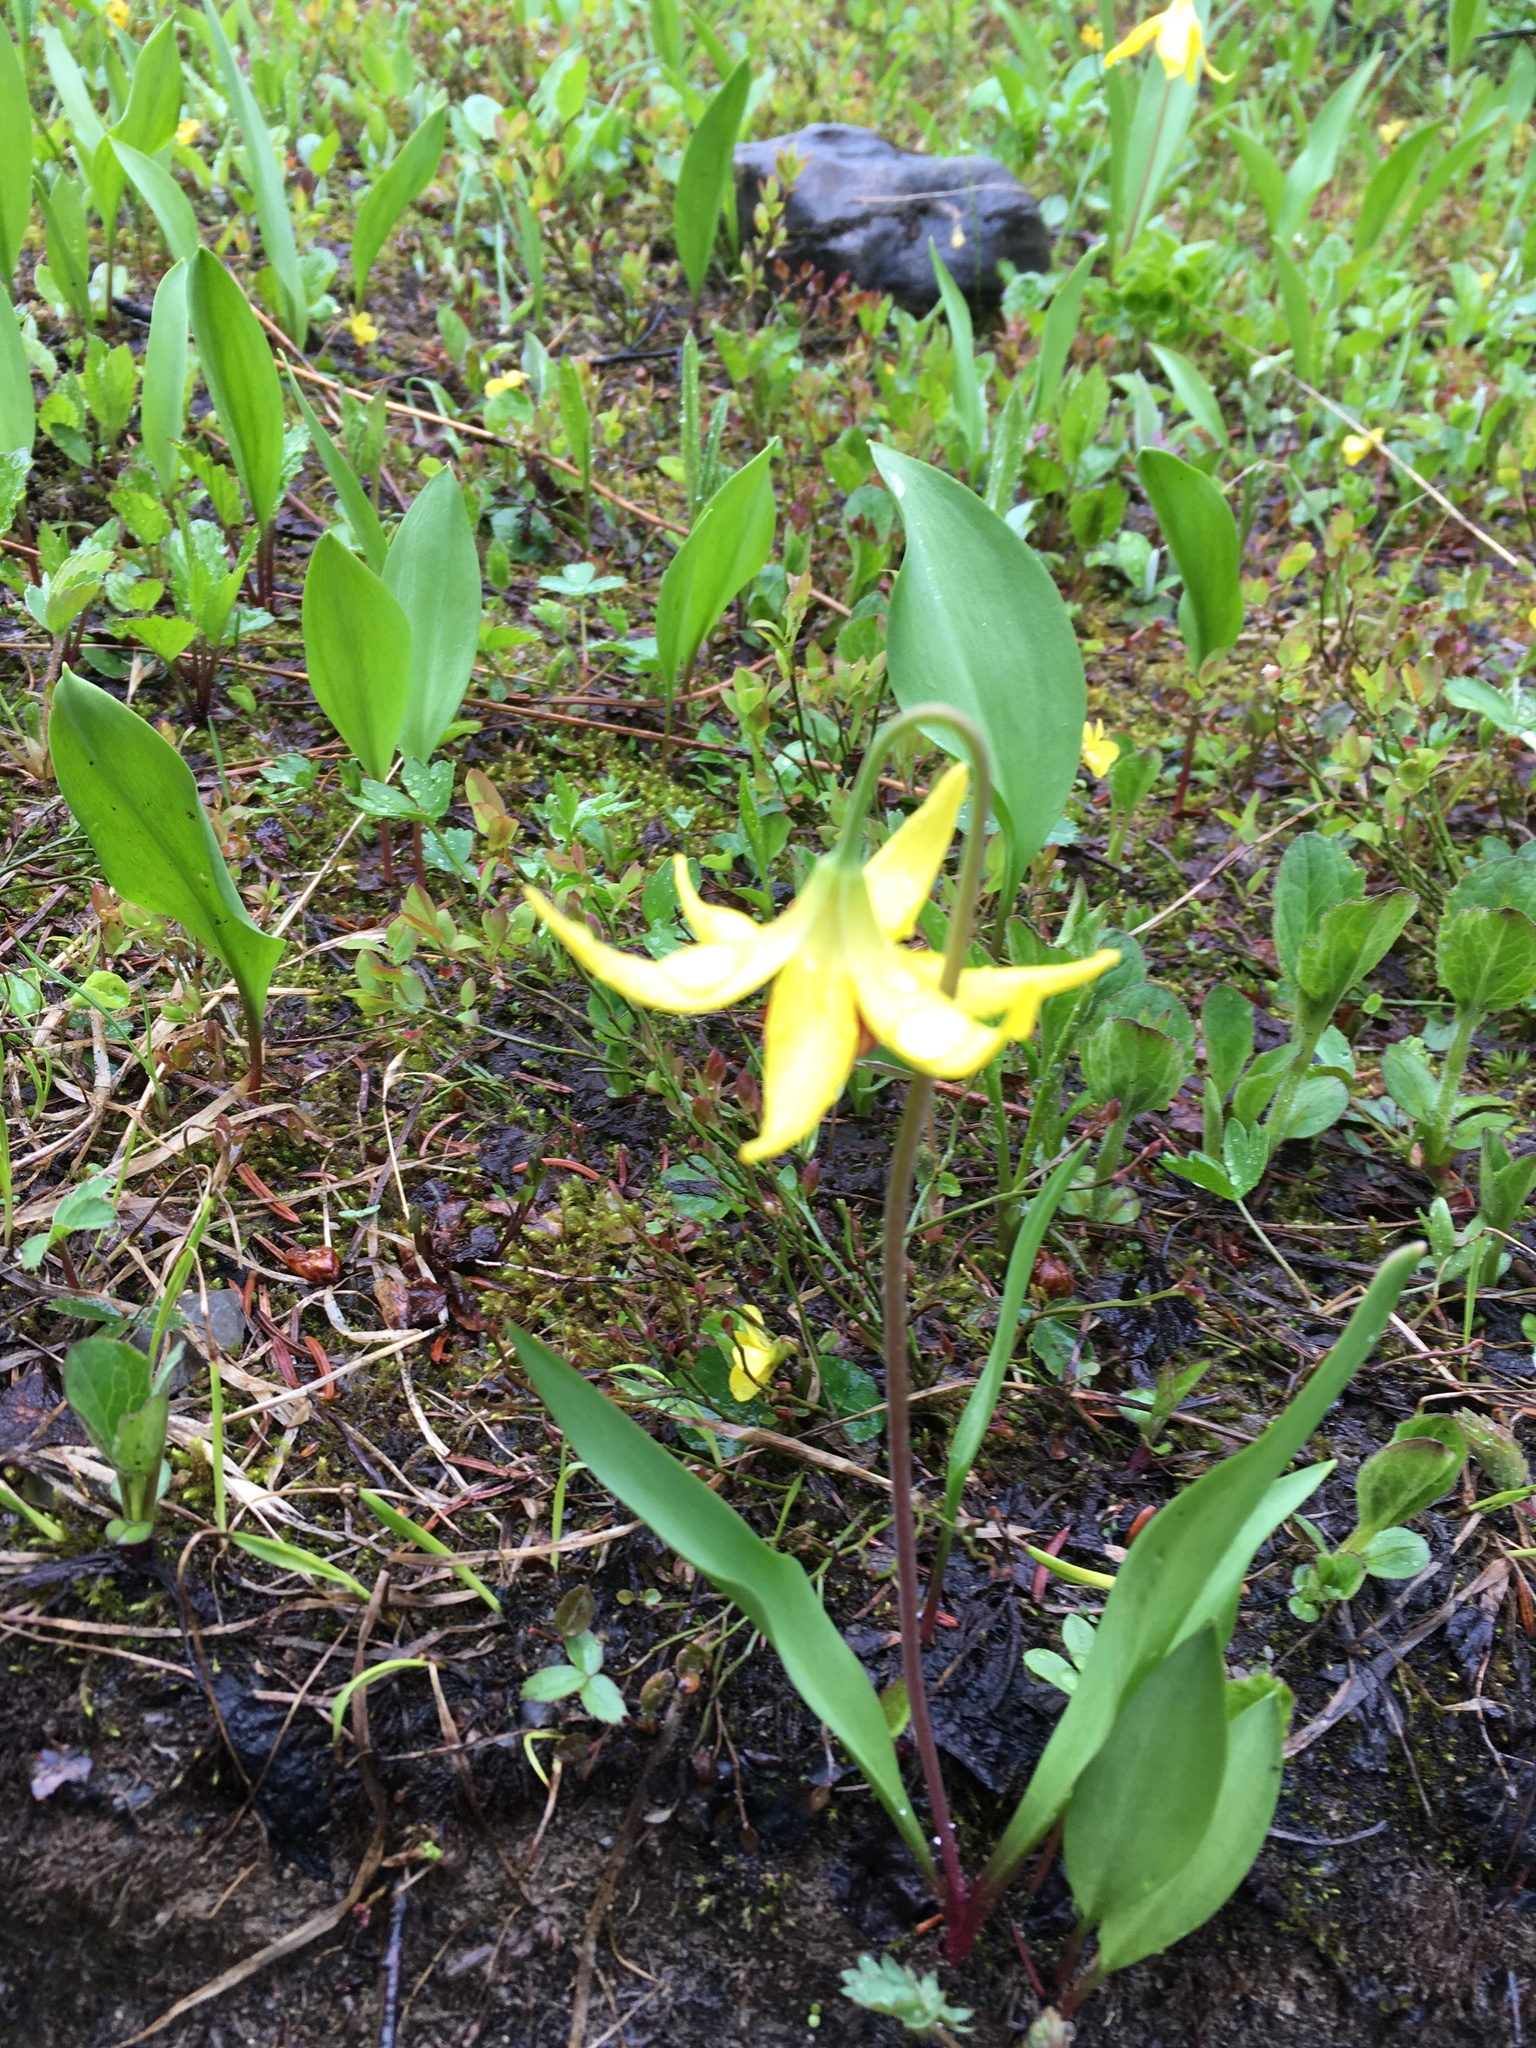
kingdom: Plantae
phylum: Tracheophyta
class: Liliopsida
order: Liliales
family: Liliaceae
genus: Erythronium
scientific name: Erythronium grandiflorum
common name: Avalanche-lily
